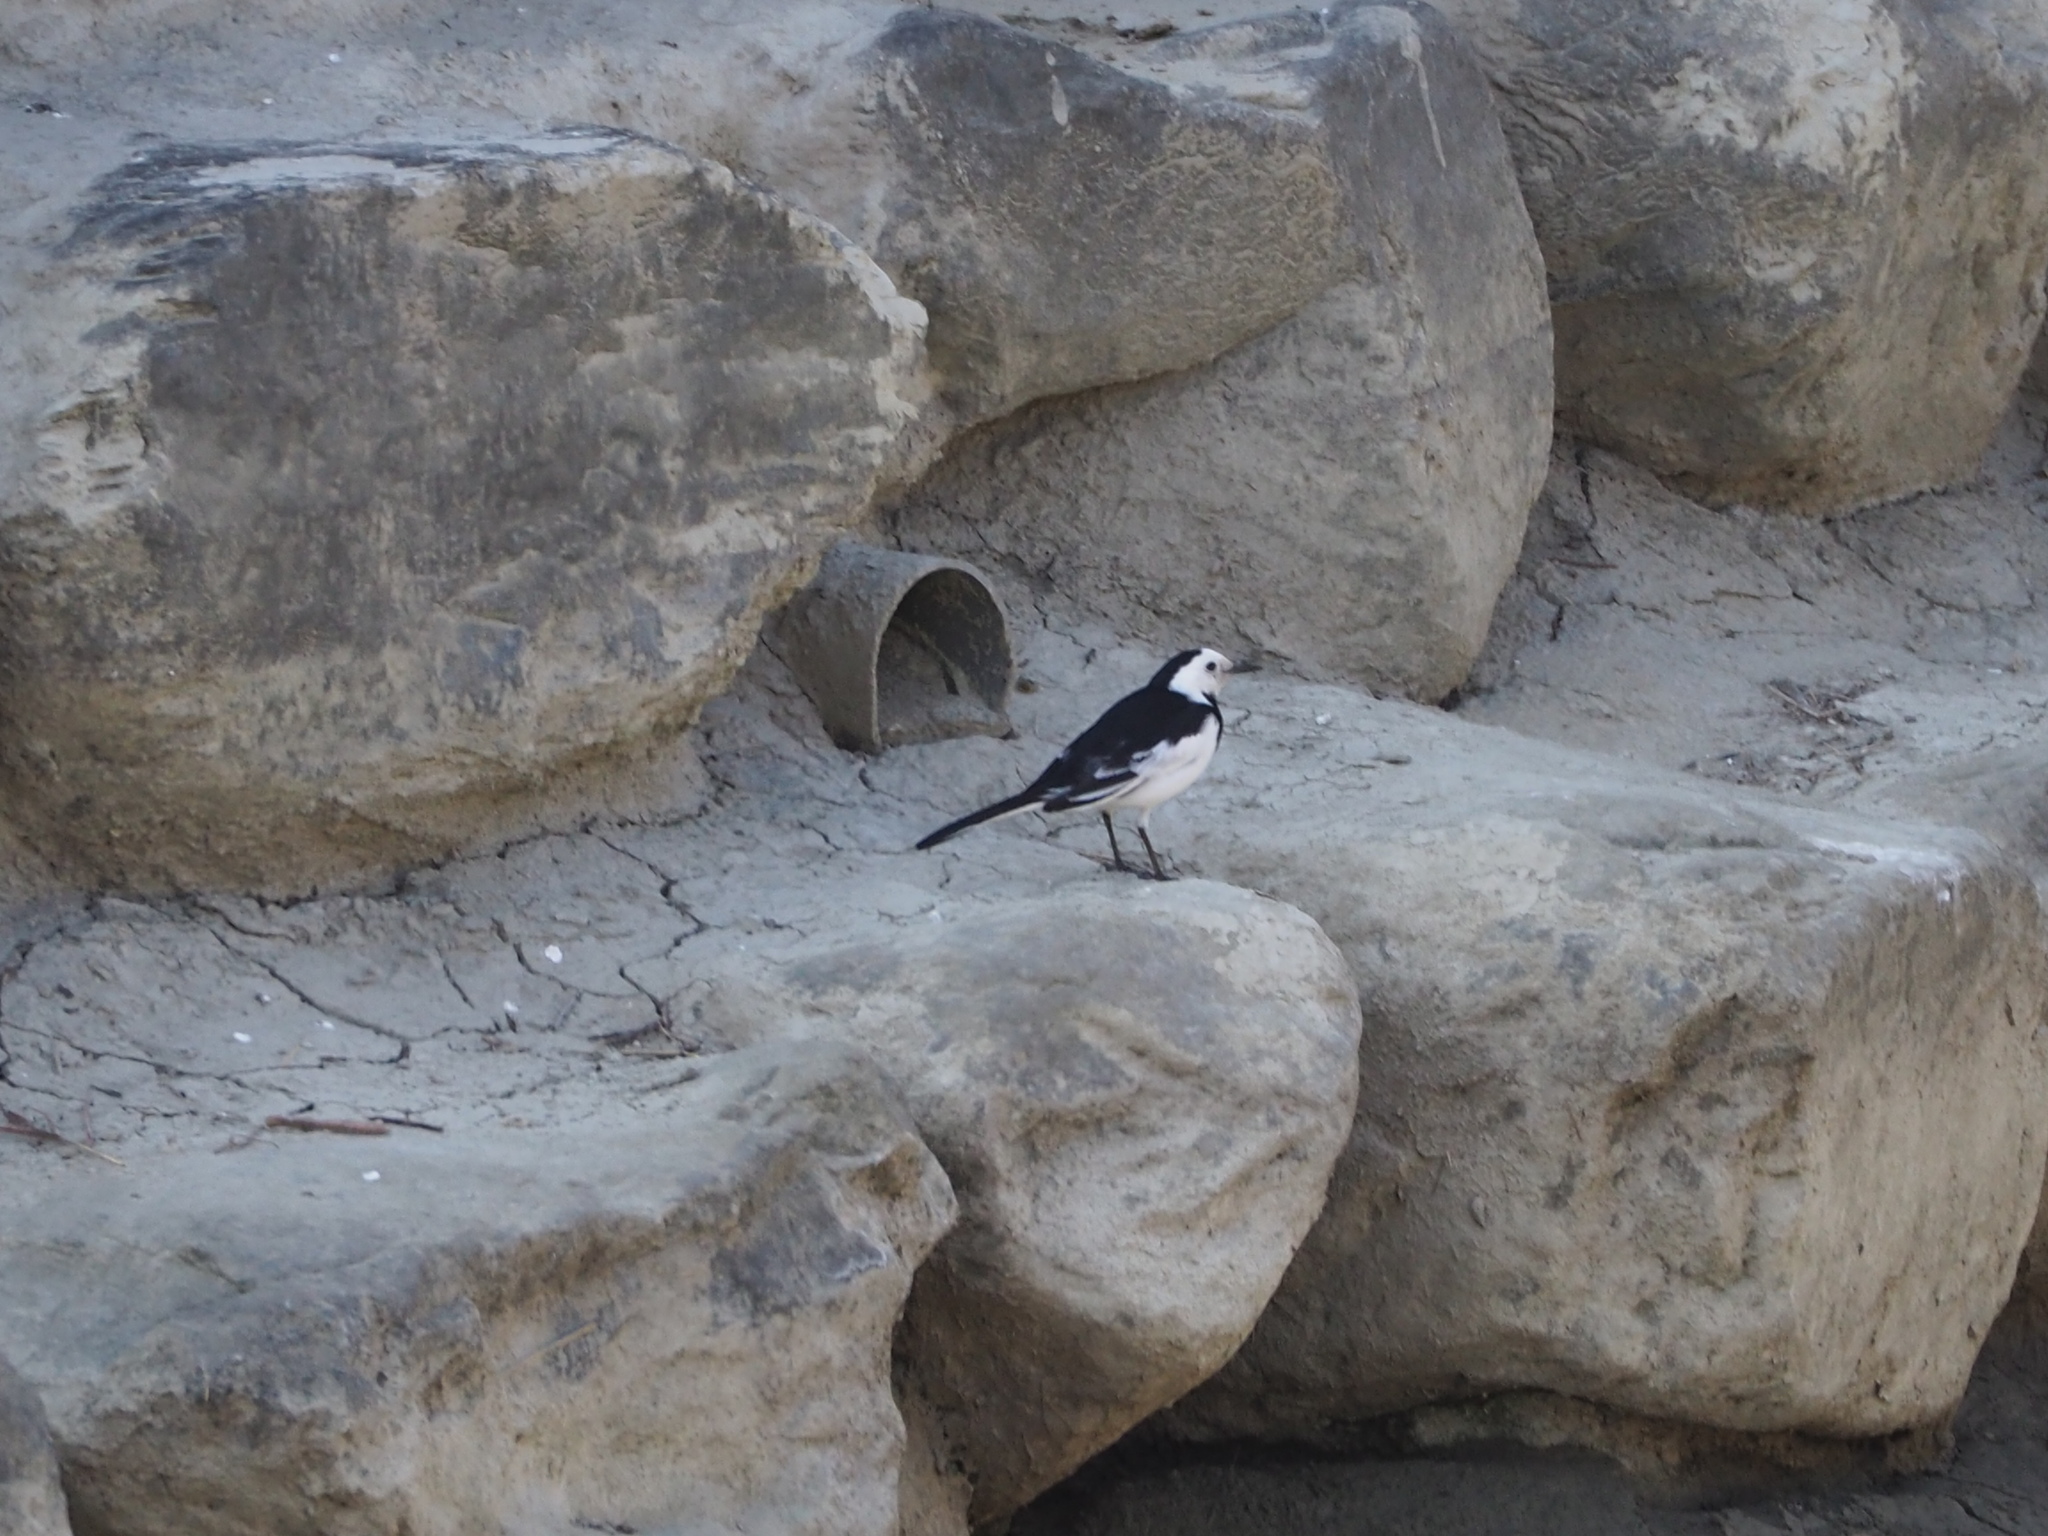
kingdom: Animalia
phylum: Chordata
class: Aves
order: Passeriformes
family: Motacillidae
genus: Motacilla
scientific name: Motacilla alba
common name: White wagtail
